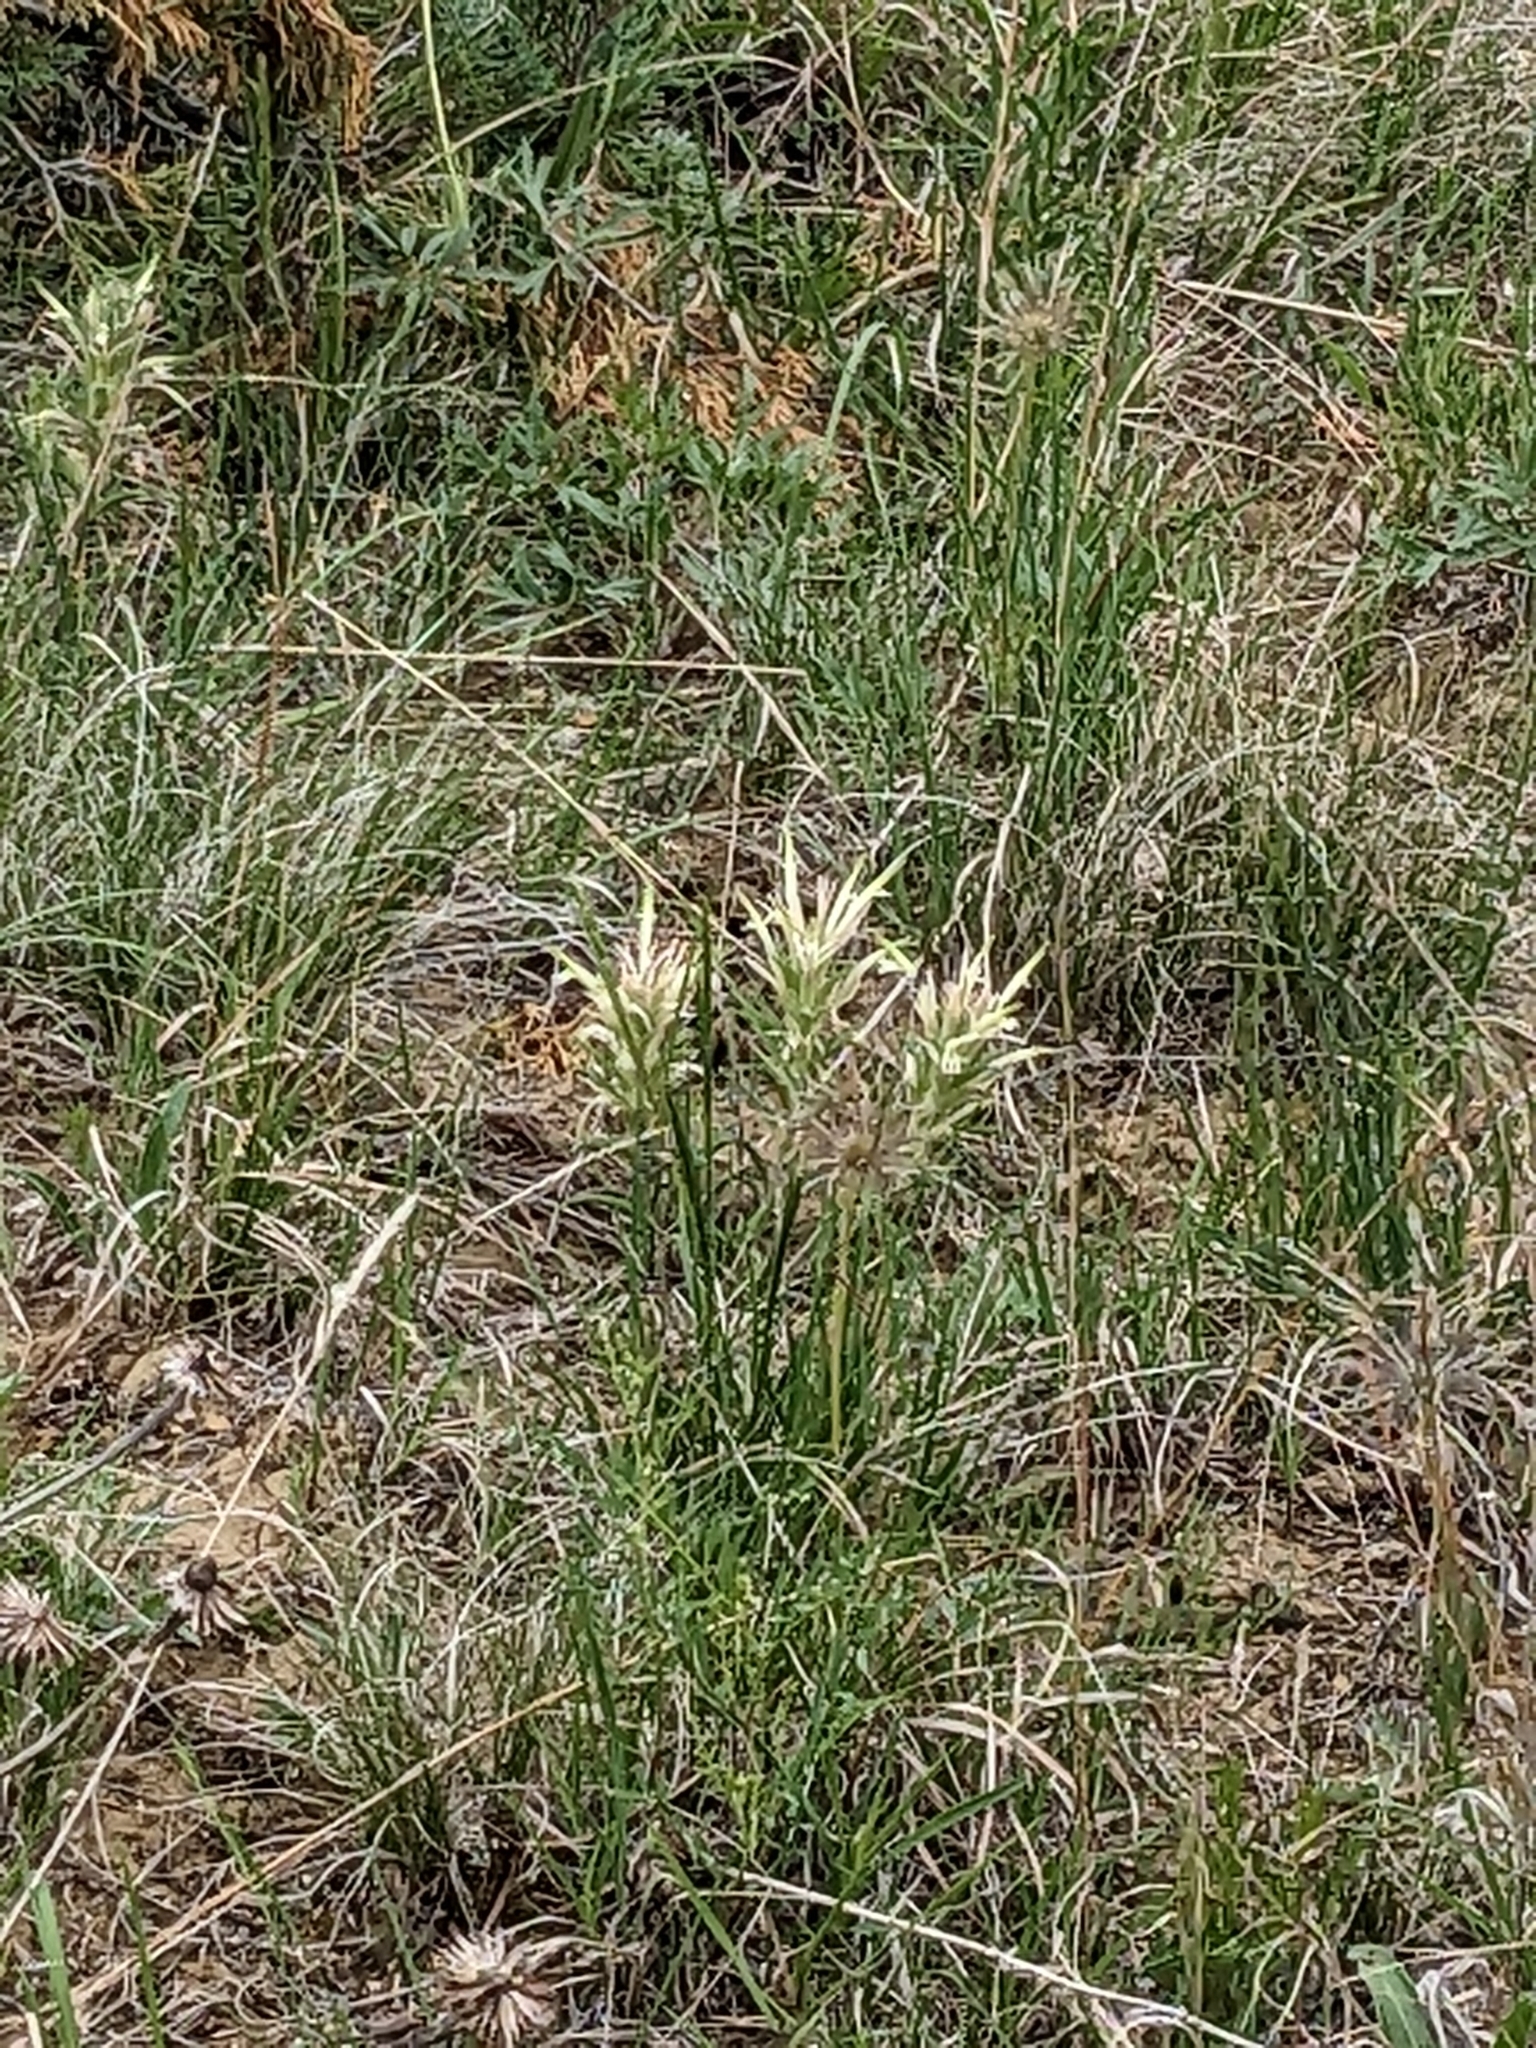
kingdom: Plantae
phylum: Tracheophyta
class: Magnoliopsida
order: Lamiales
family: Orobanchaceae
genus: Castilleja
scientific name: Castilleja sessiliflora
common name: Downy paintbrush
